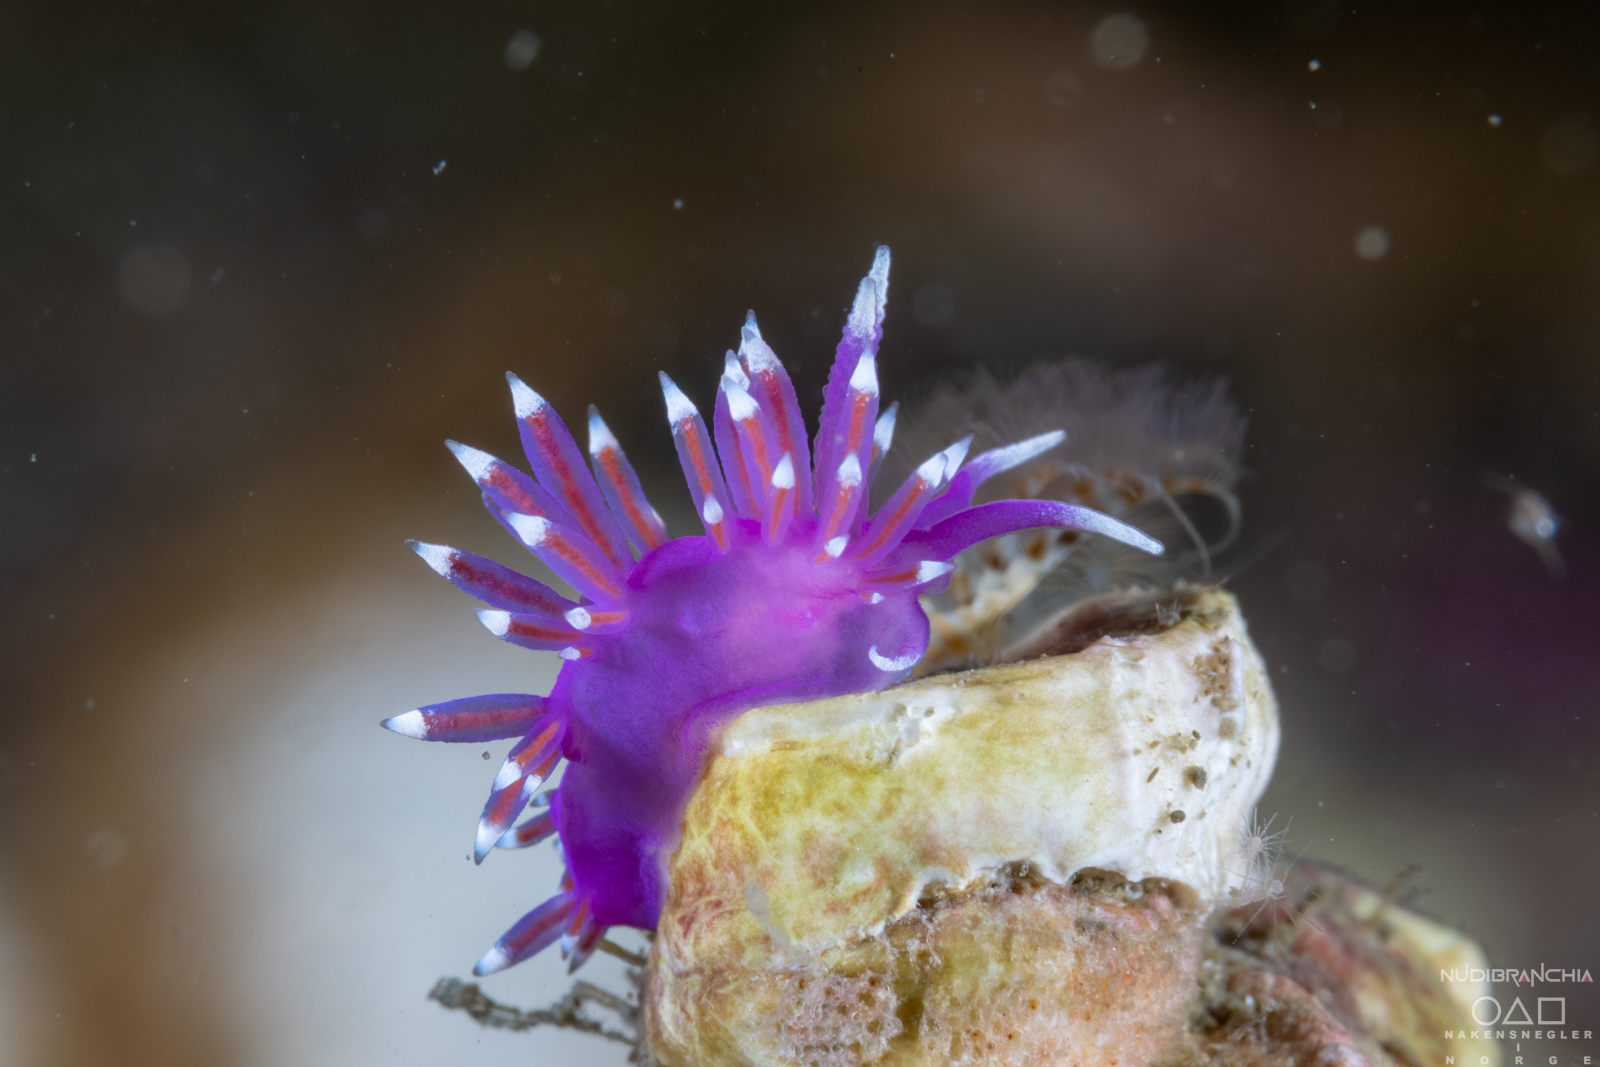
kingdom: Animalia
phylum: Mollusca
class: Gastropoda
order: Nudibranchia
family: Flabellinidae
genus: Edmundsella
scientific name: Edmundsella pedata
